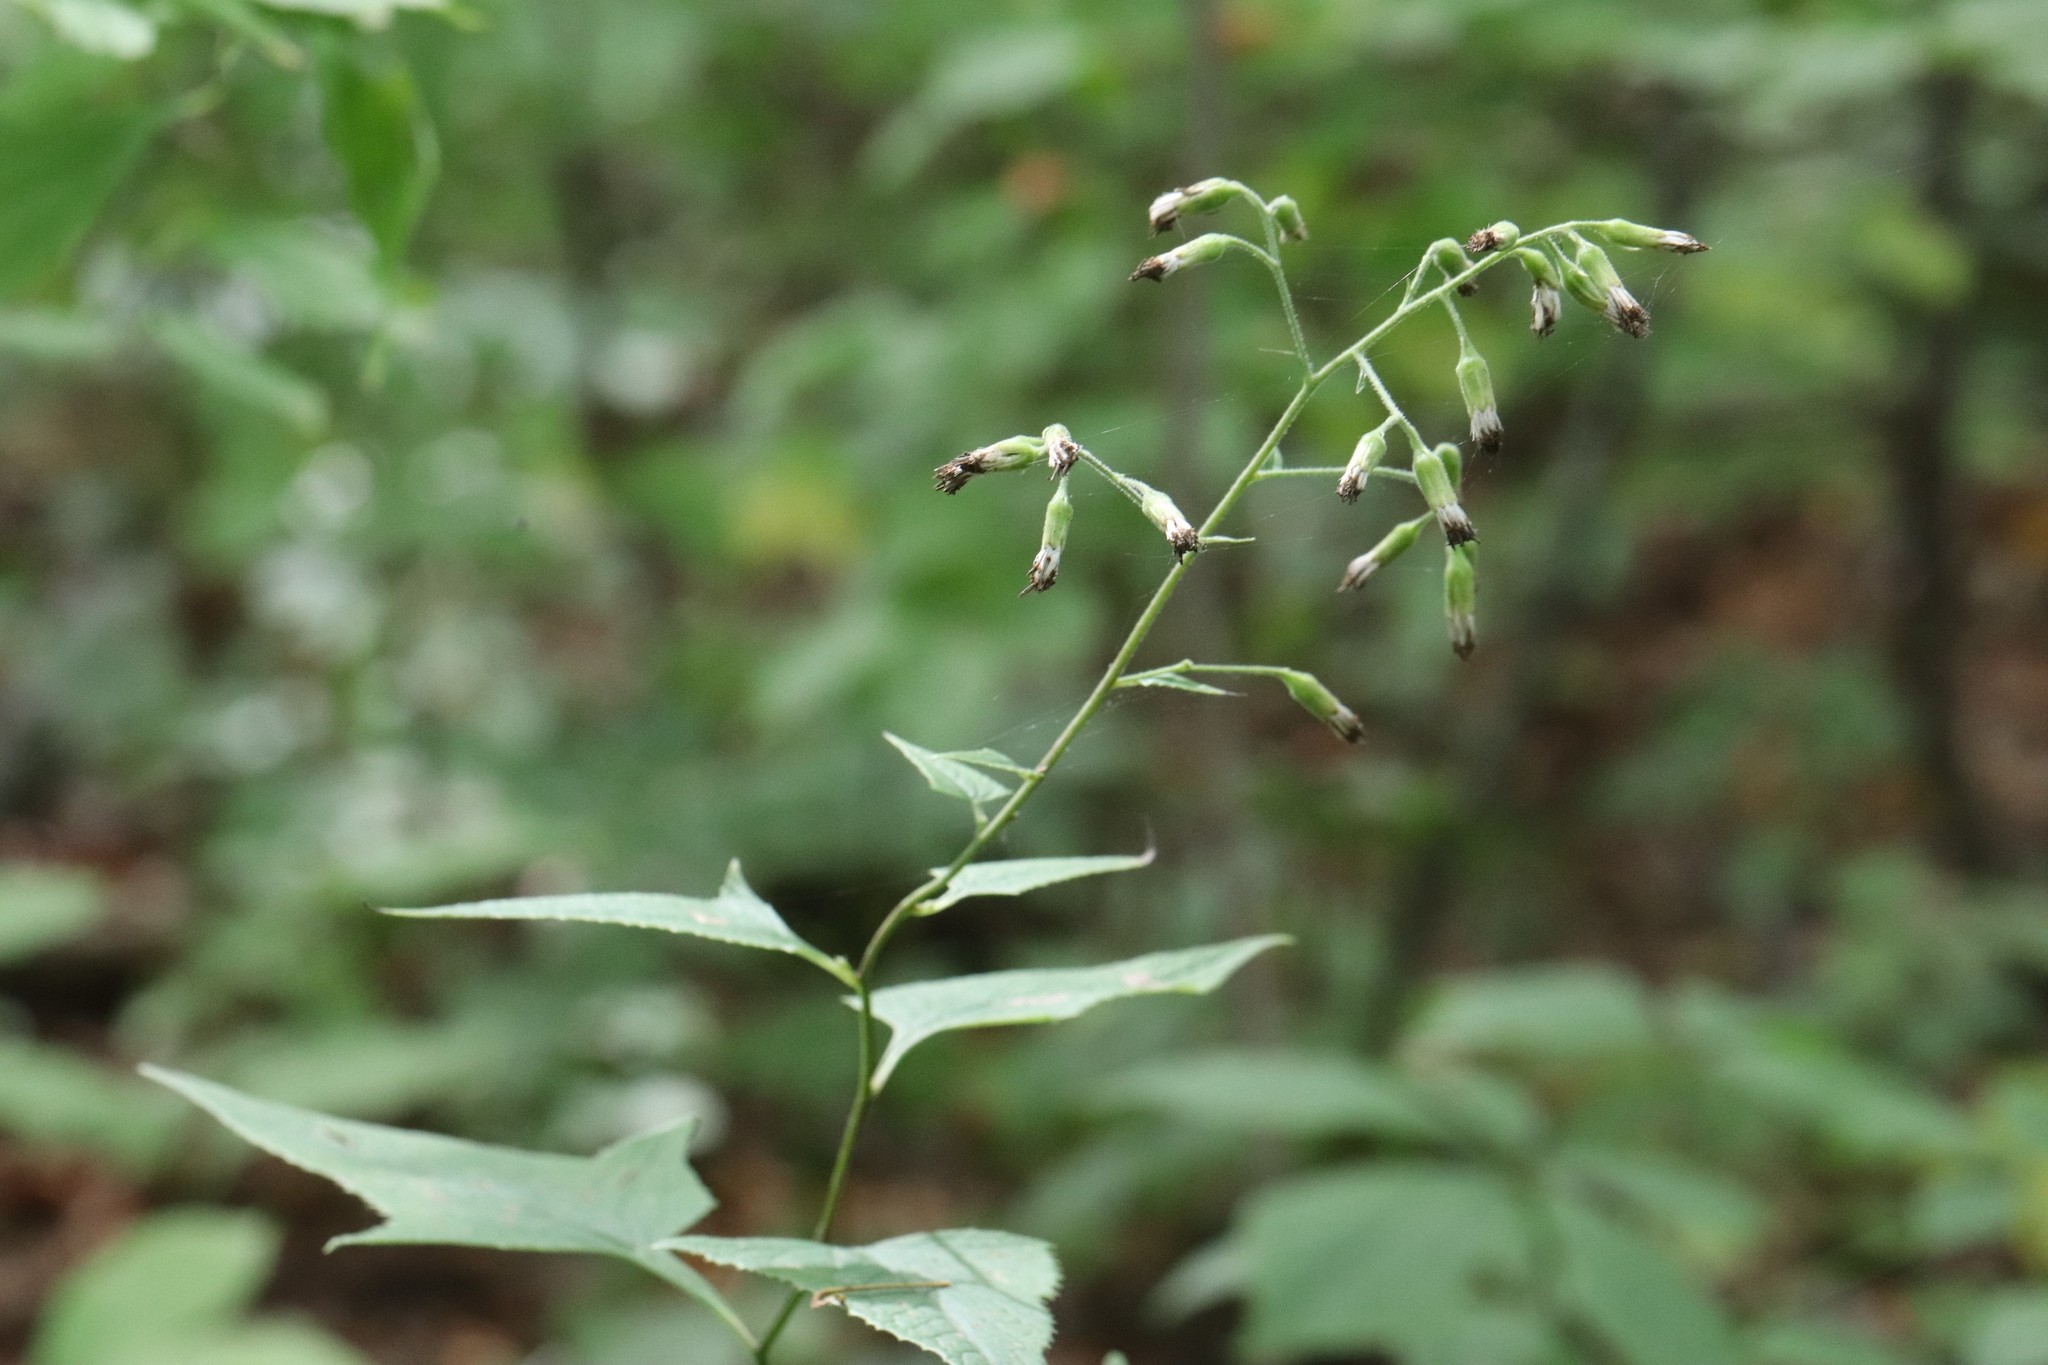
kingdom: Plantae
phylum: Tracheophyta
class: Magnoliopsida
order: Asterales
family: Asteraceae
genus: Parasenecio
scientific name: Parasenecio hastatus
